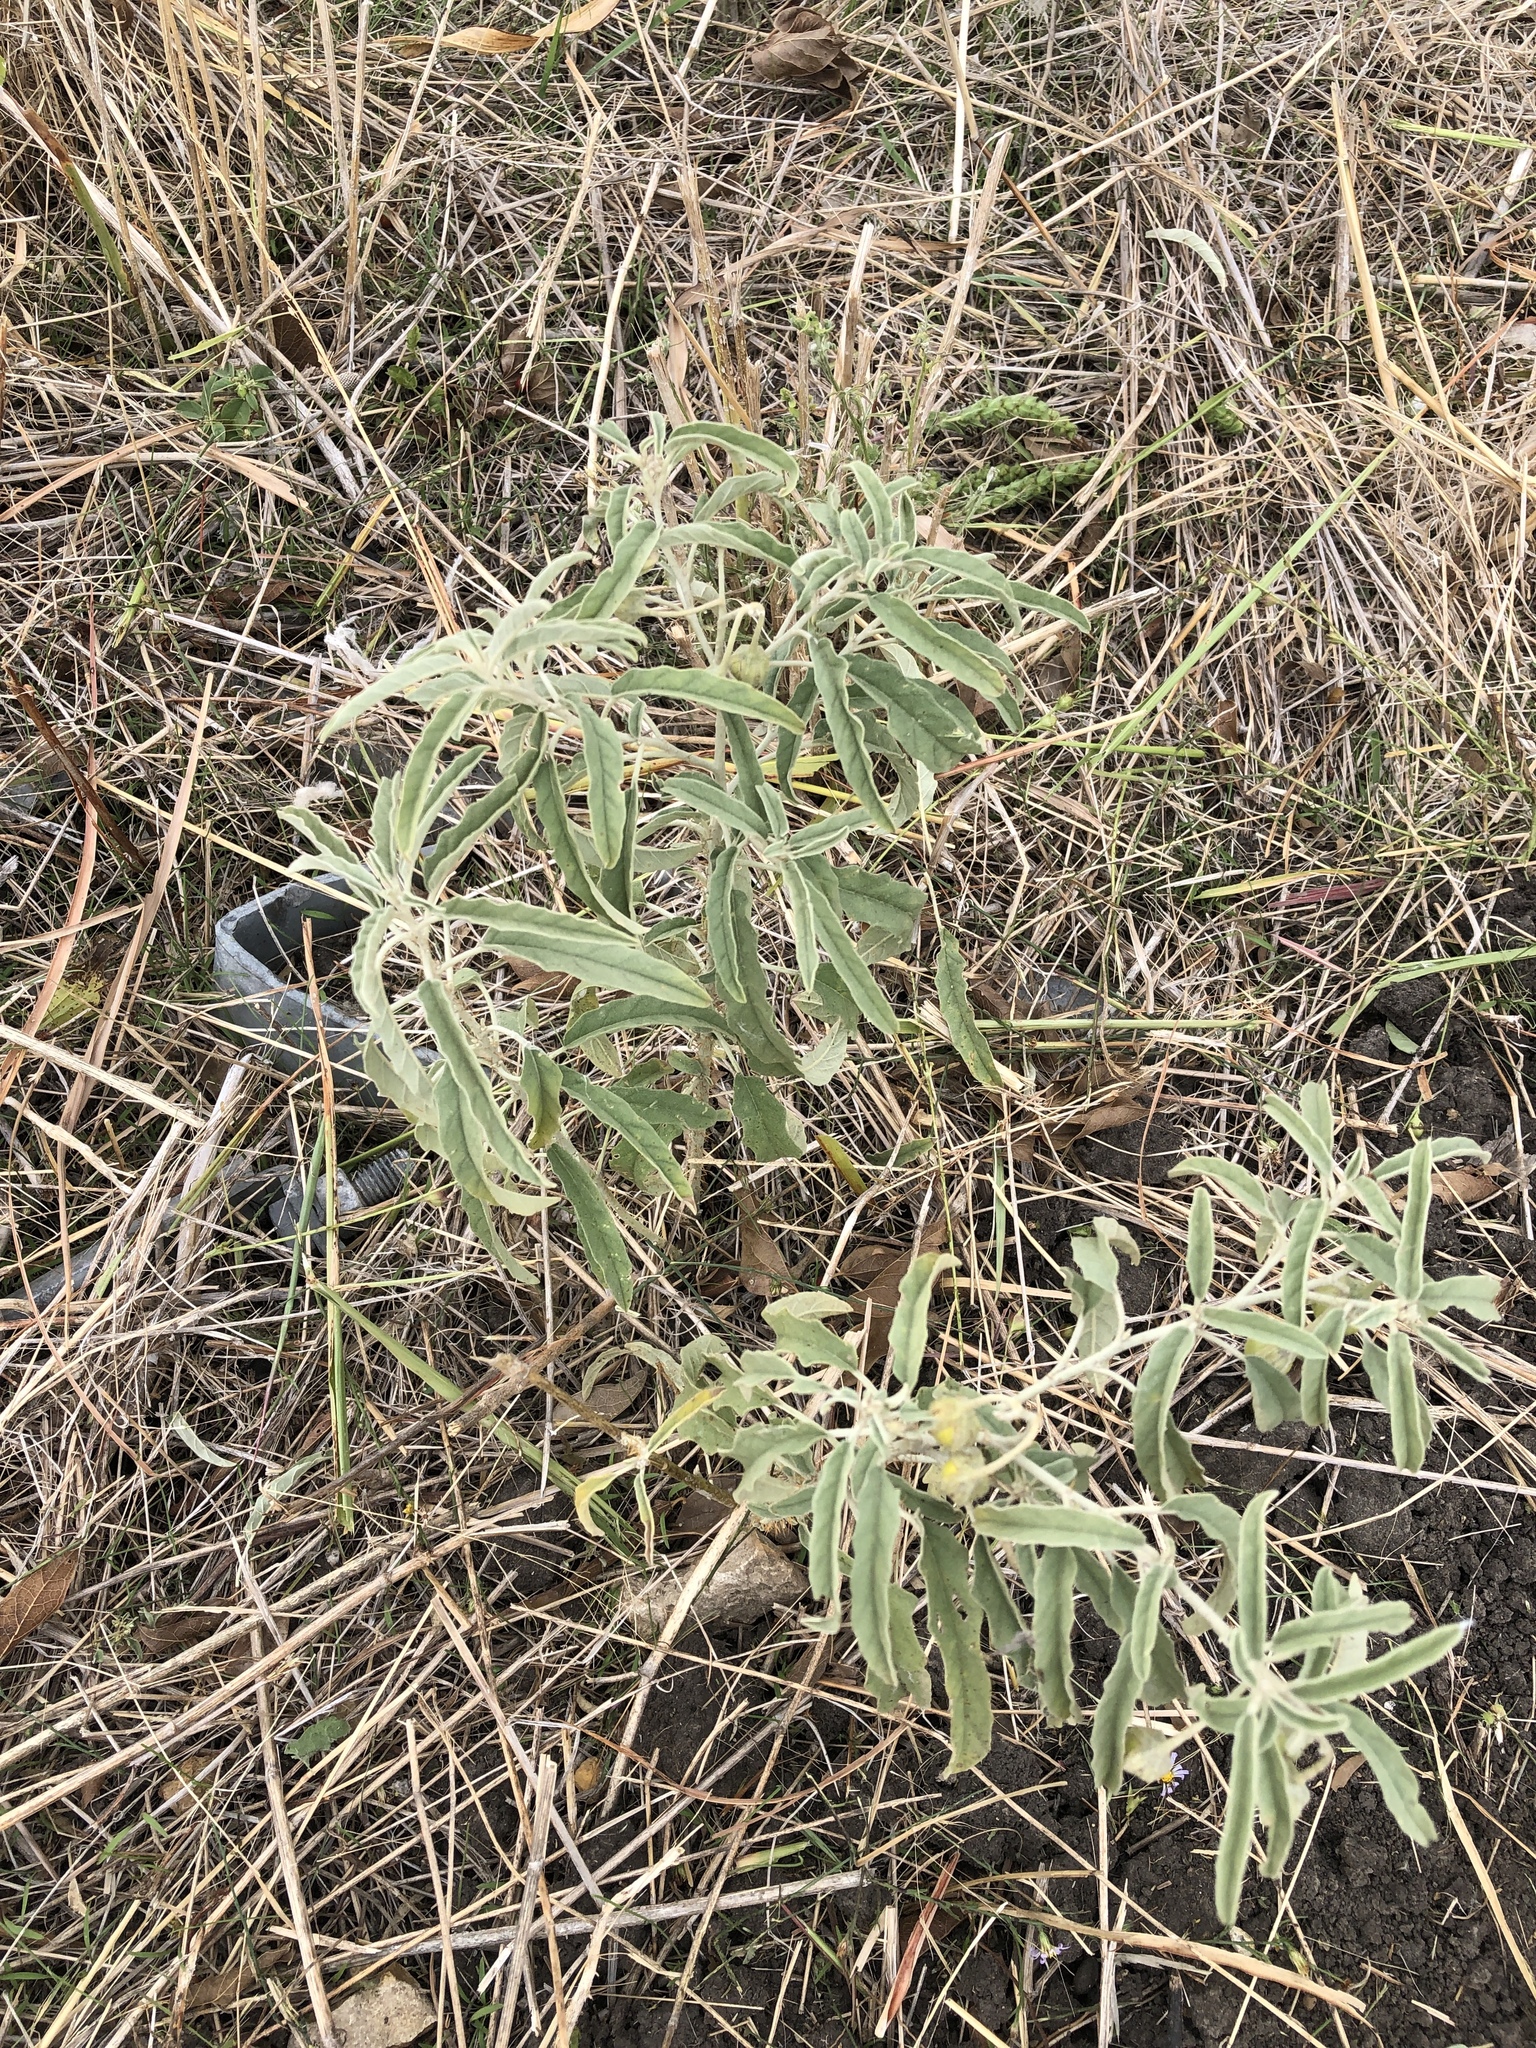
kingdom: Plantae
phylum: Tracheophyta
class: Magnoliopsida
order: Solanales
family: Solanaceae
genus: Solanum
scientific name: Solanum elaeagnifolium
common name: Silverleaf nightshade
